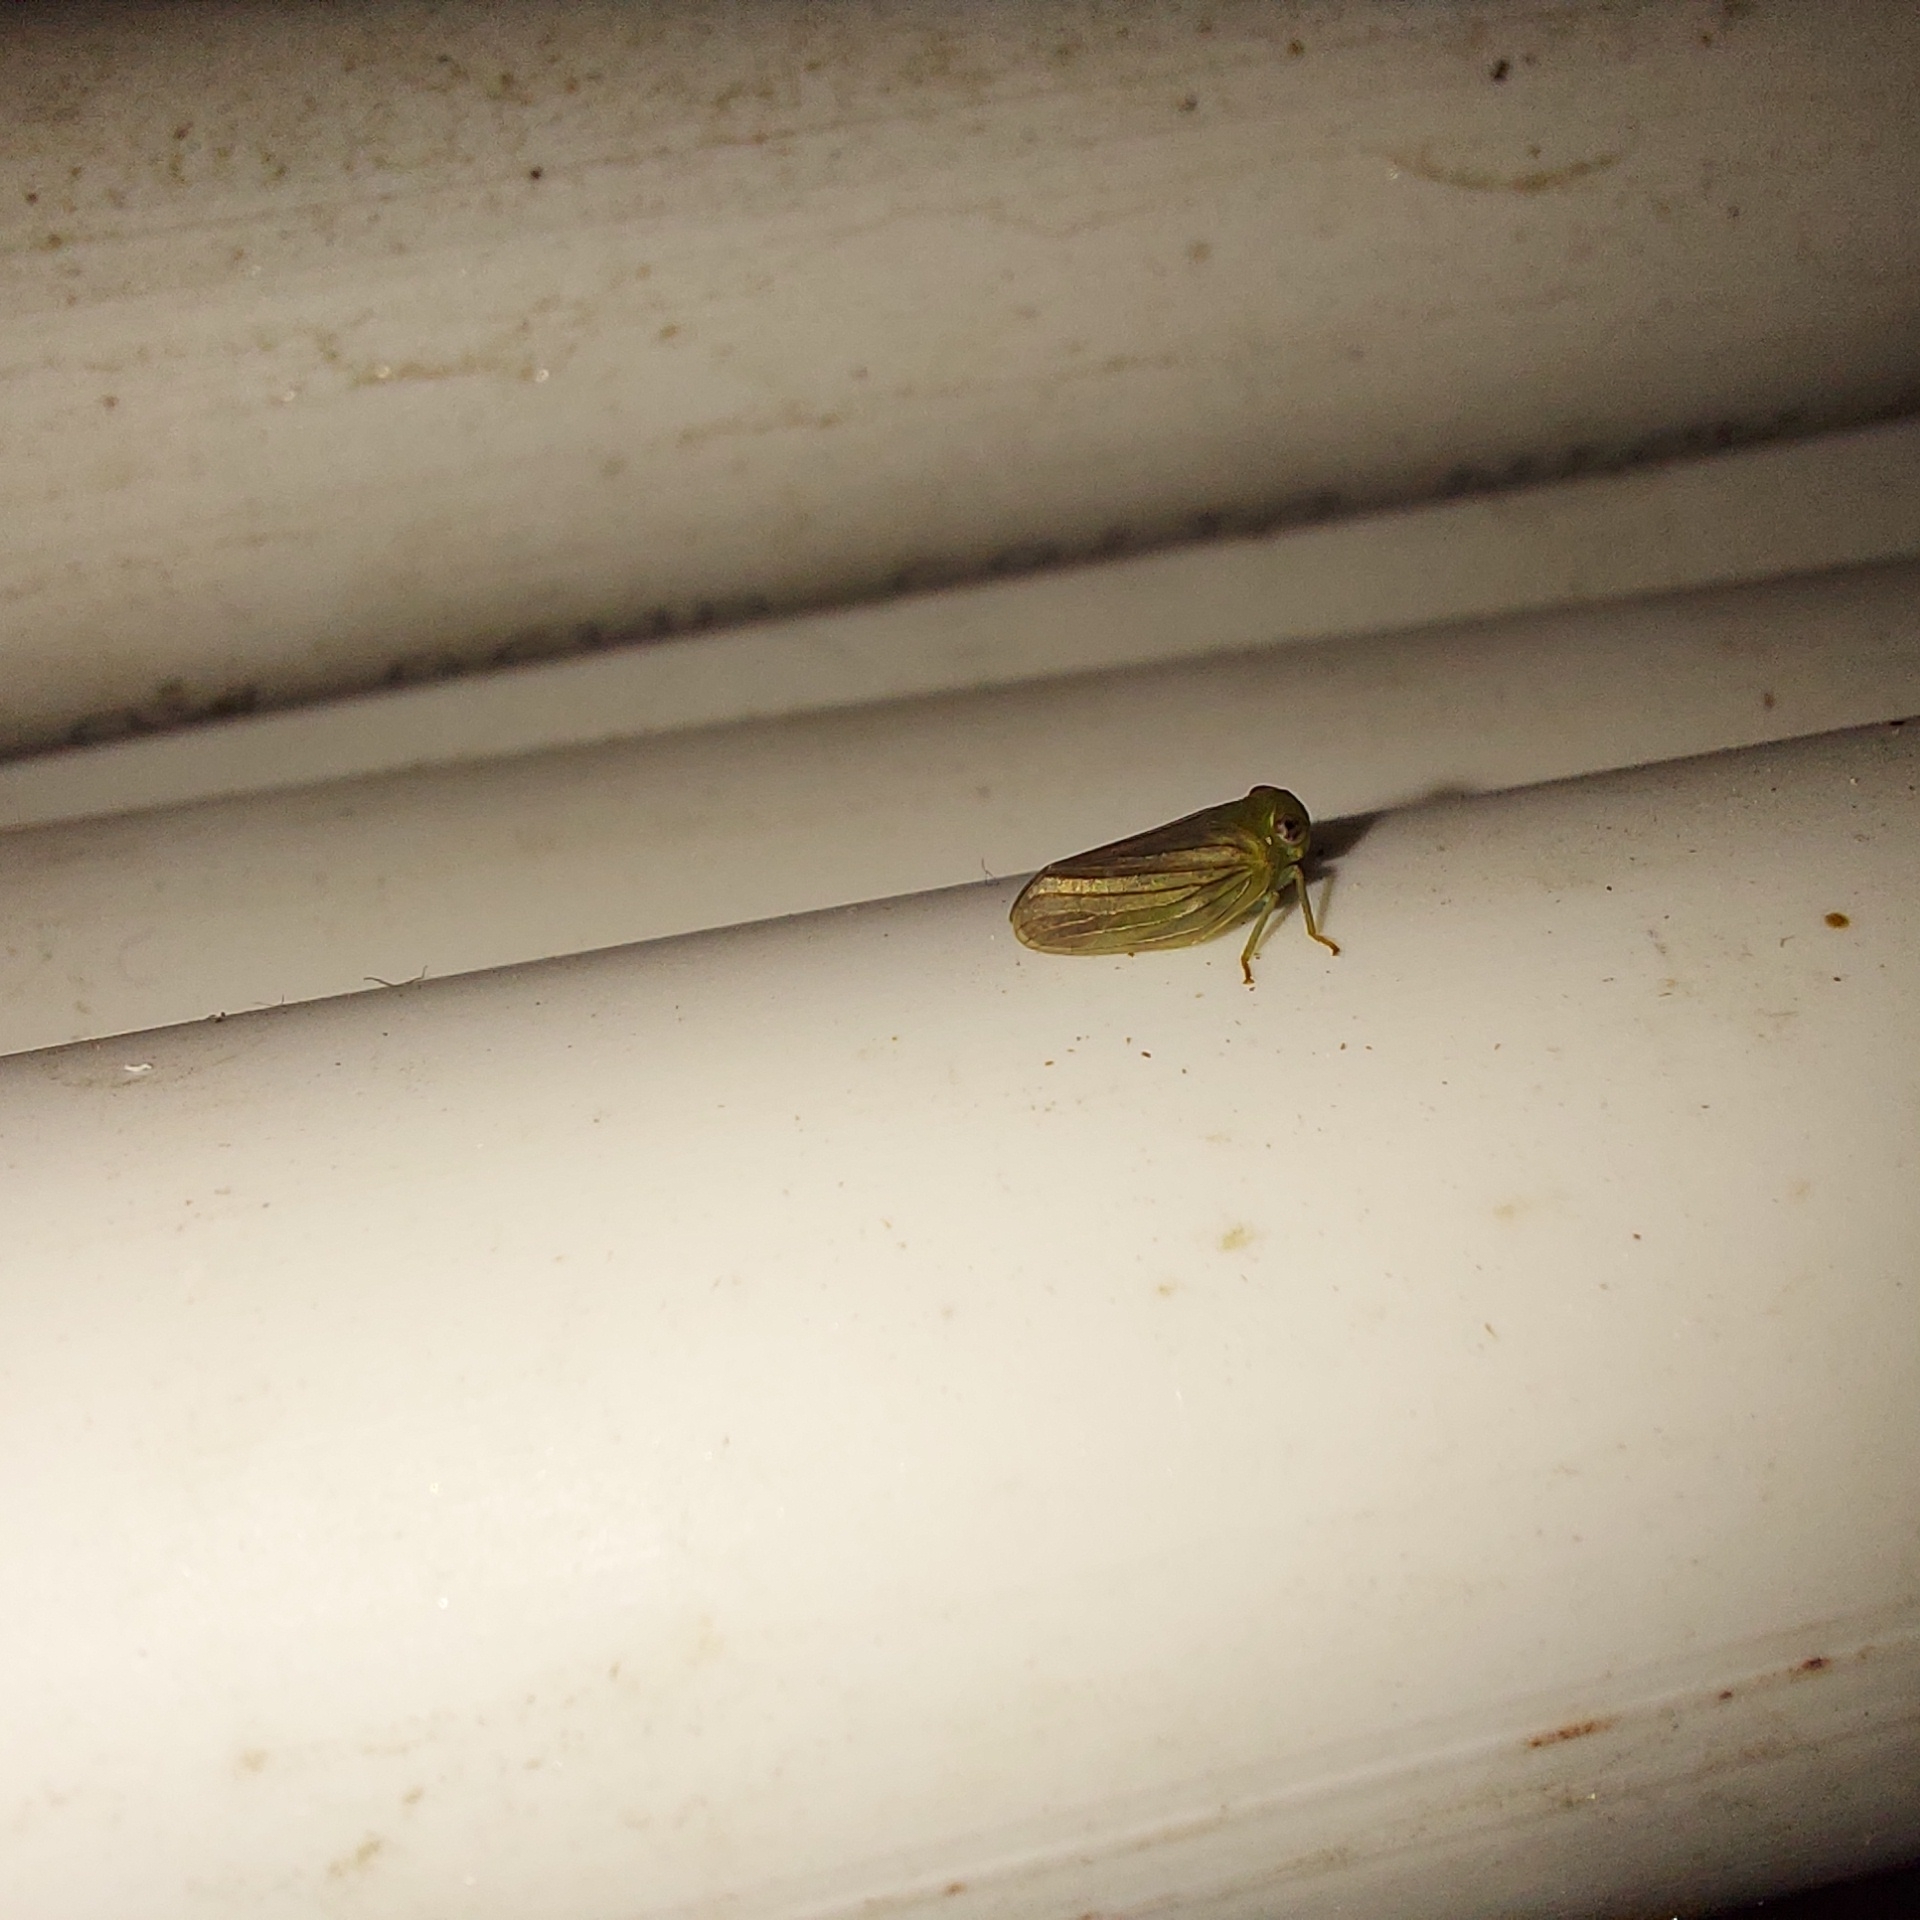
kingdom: Animalia
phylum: Arthropoda
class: Insecta
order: Hemiptera
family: Issidae
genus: Aplos
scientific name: Aplos simplex
